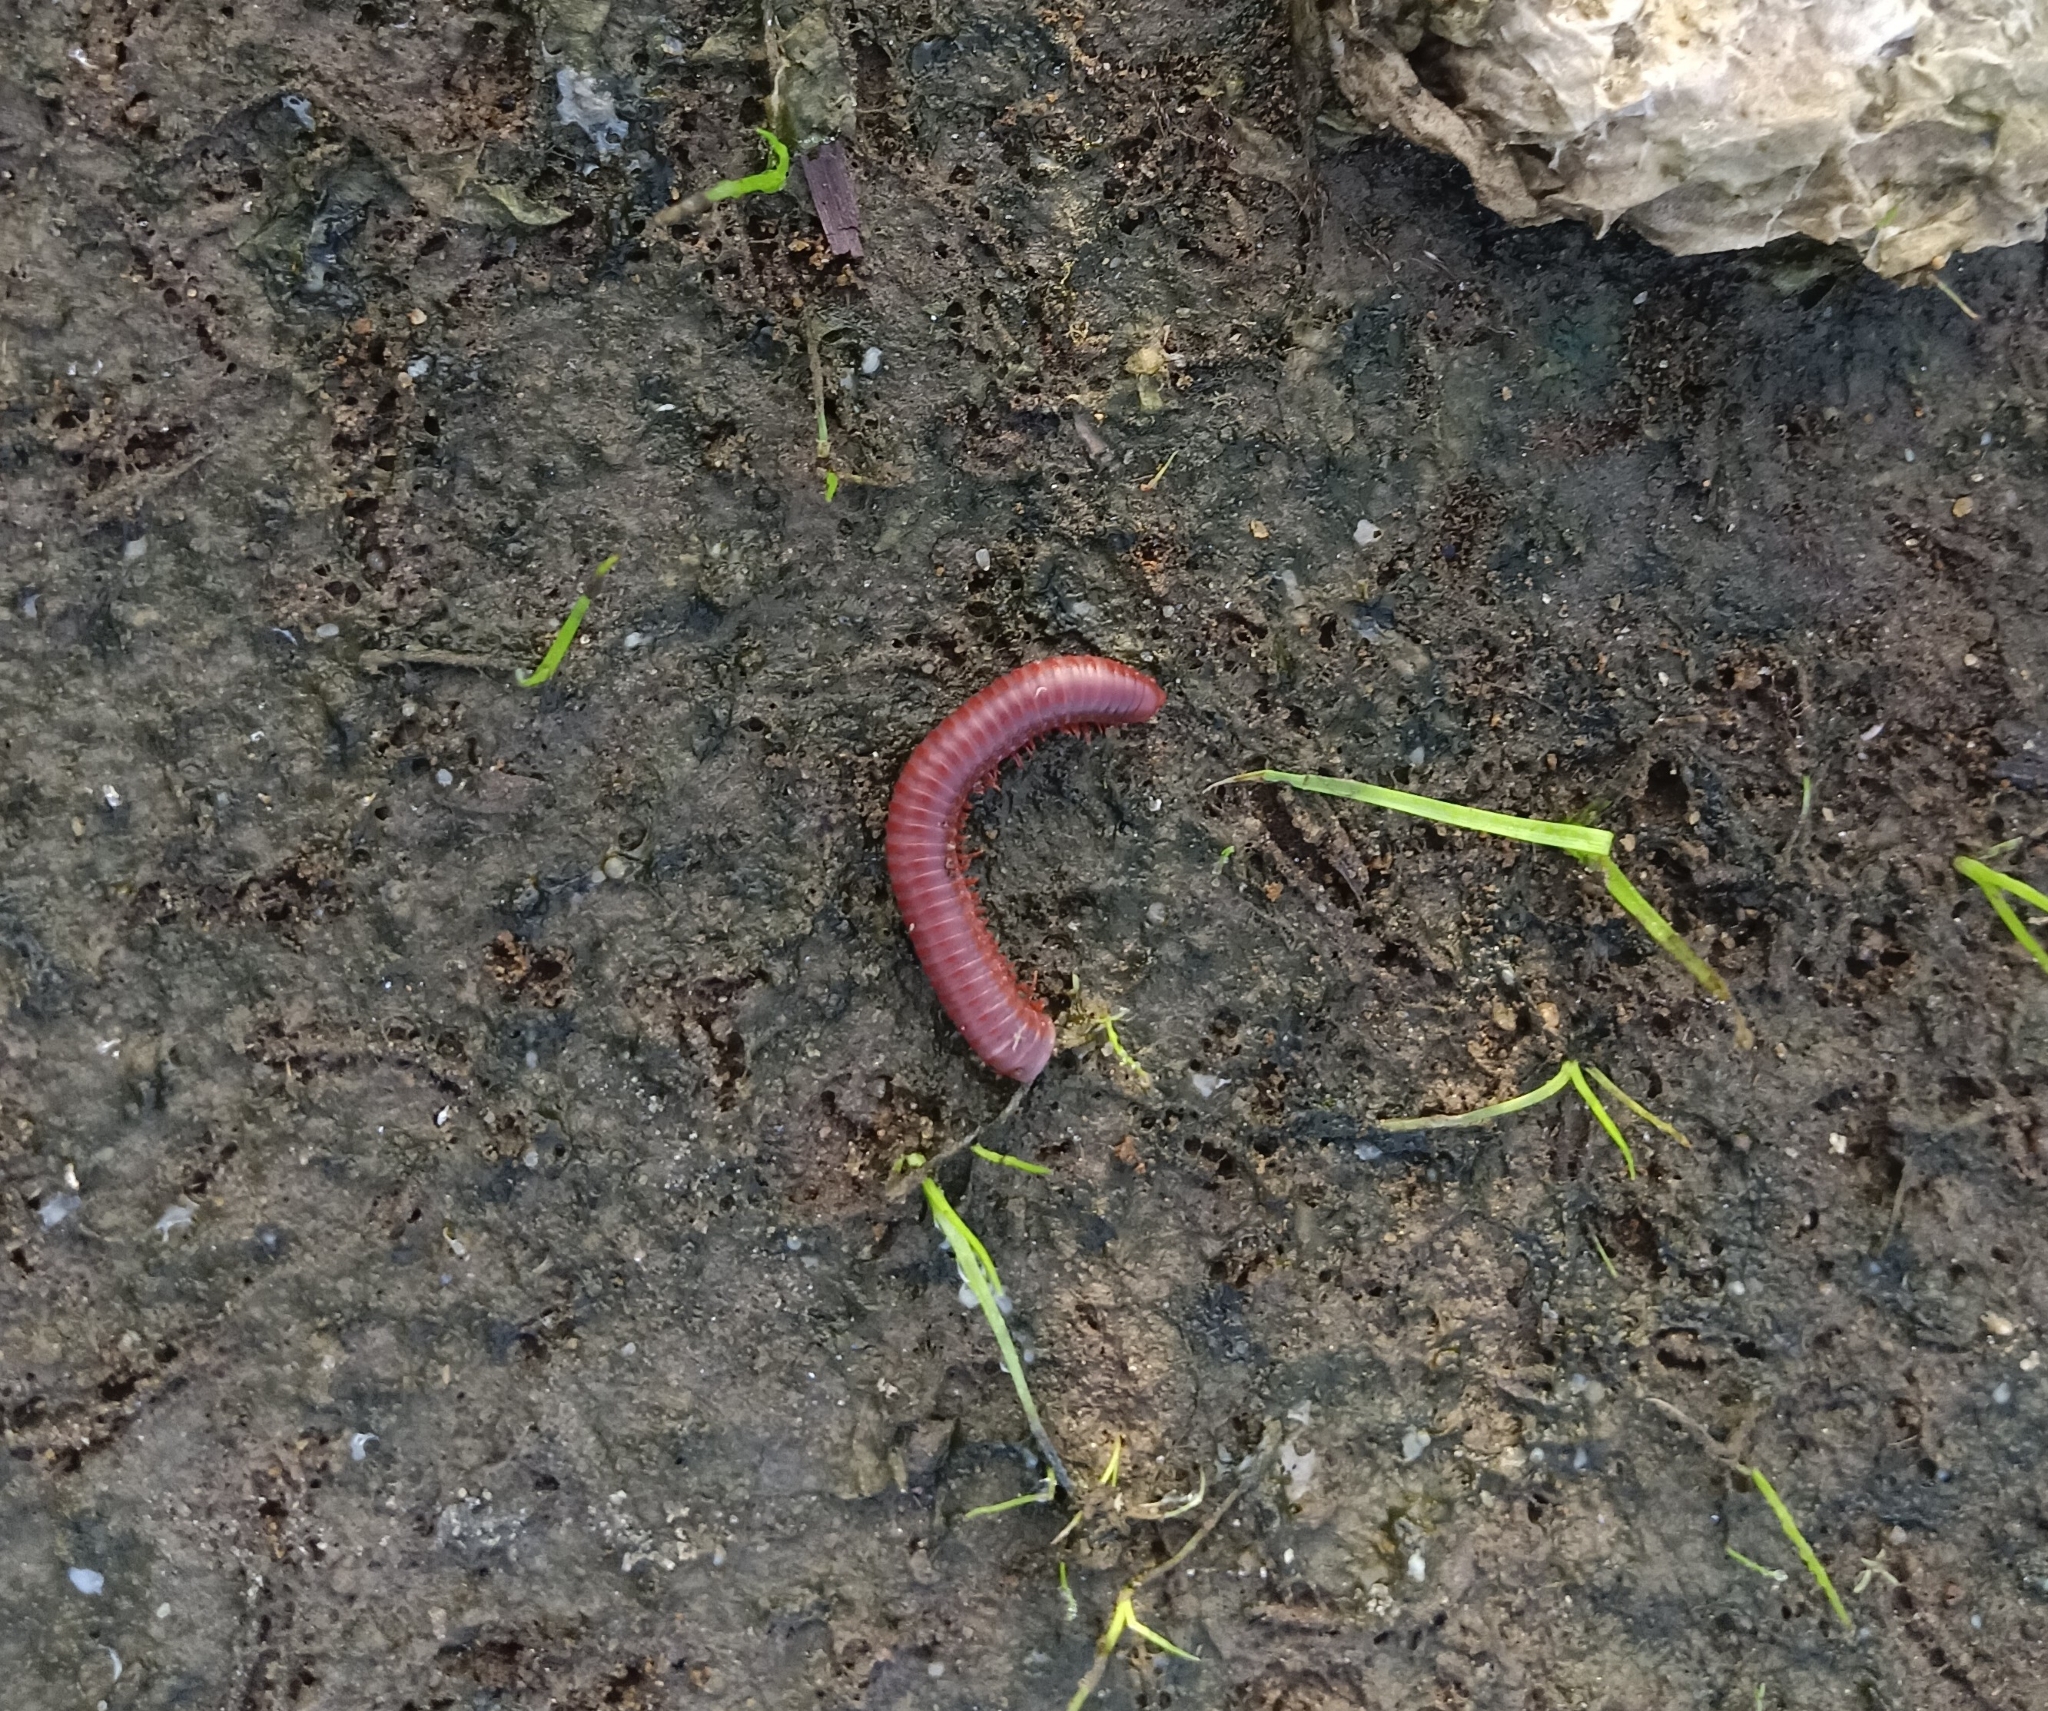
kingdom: Animalia
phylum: Arthropoda
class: Diplopoda
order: Spirobolida
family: Pachybolidae
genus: Trigoniulus
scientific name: Trigoniulus corallinus
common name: Millipede
